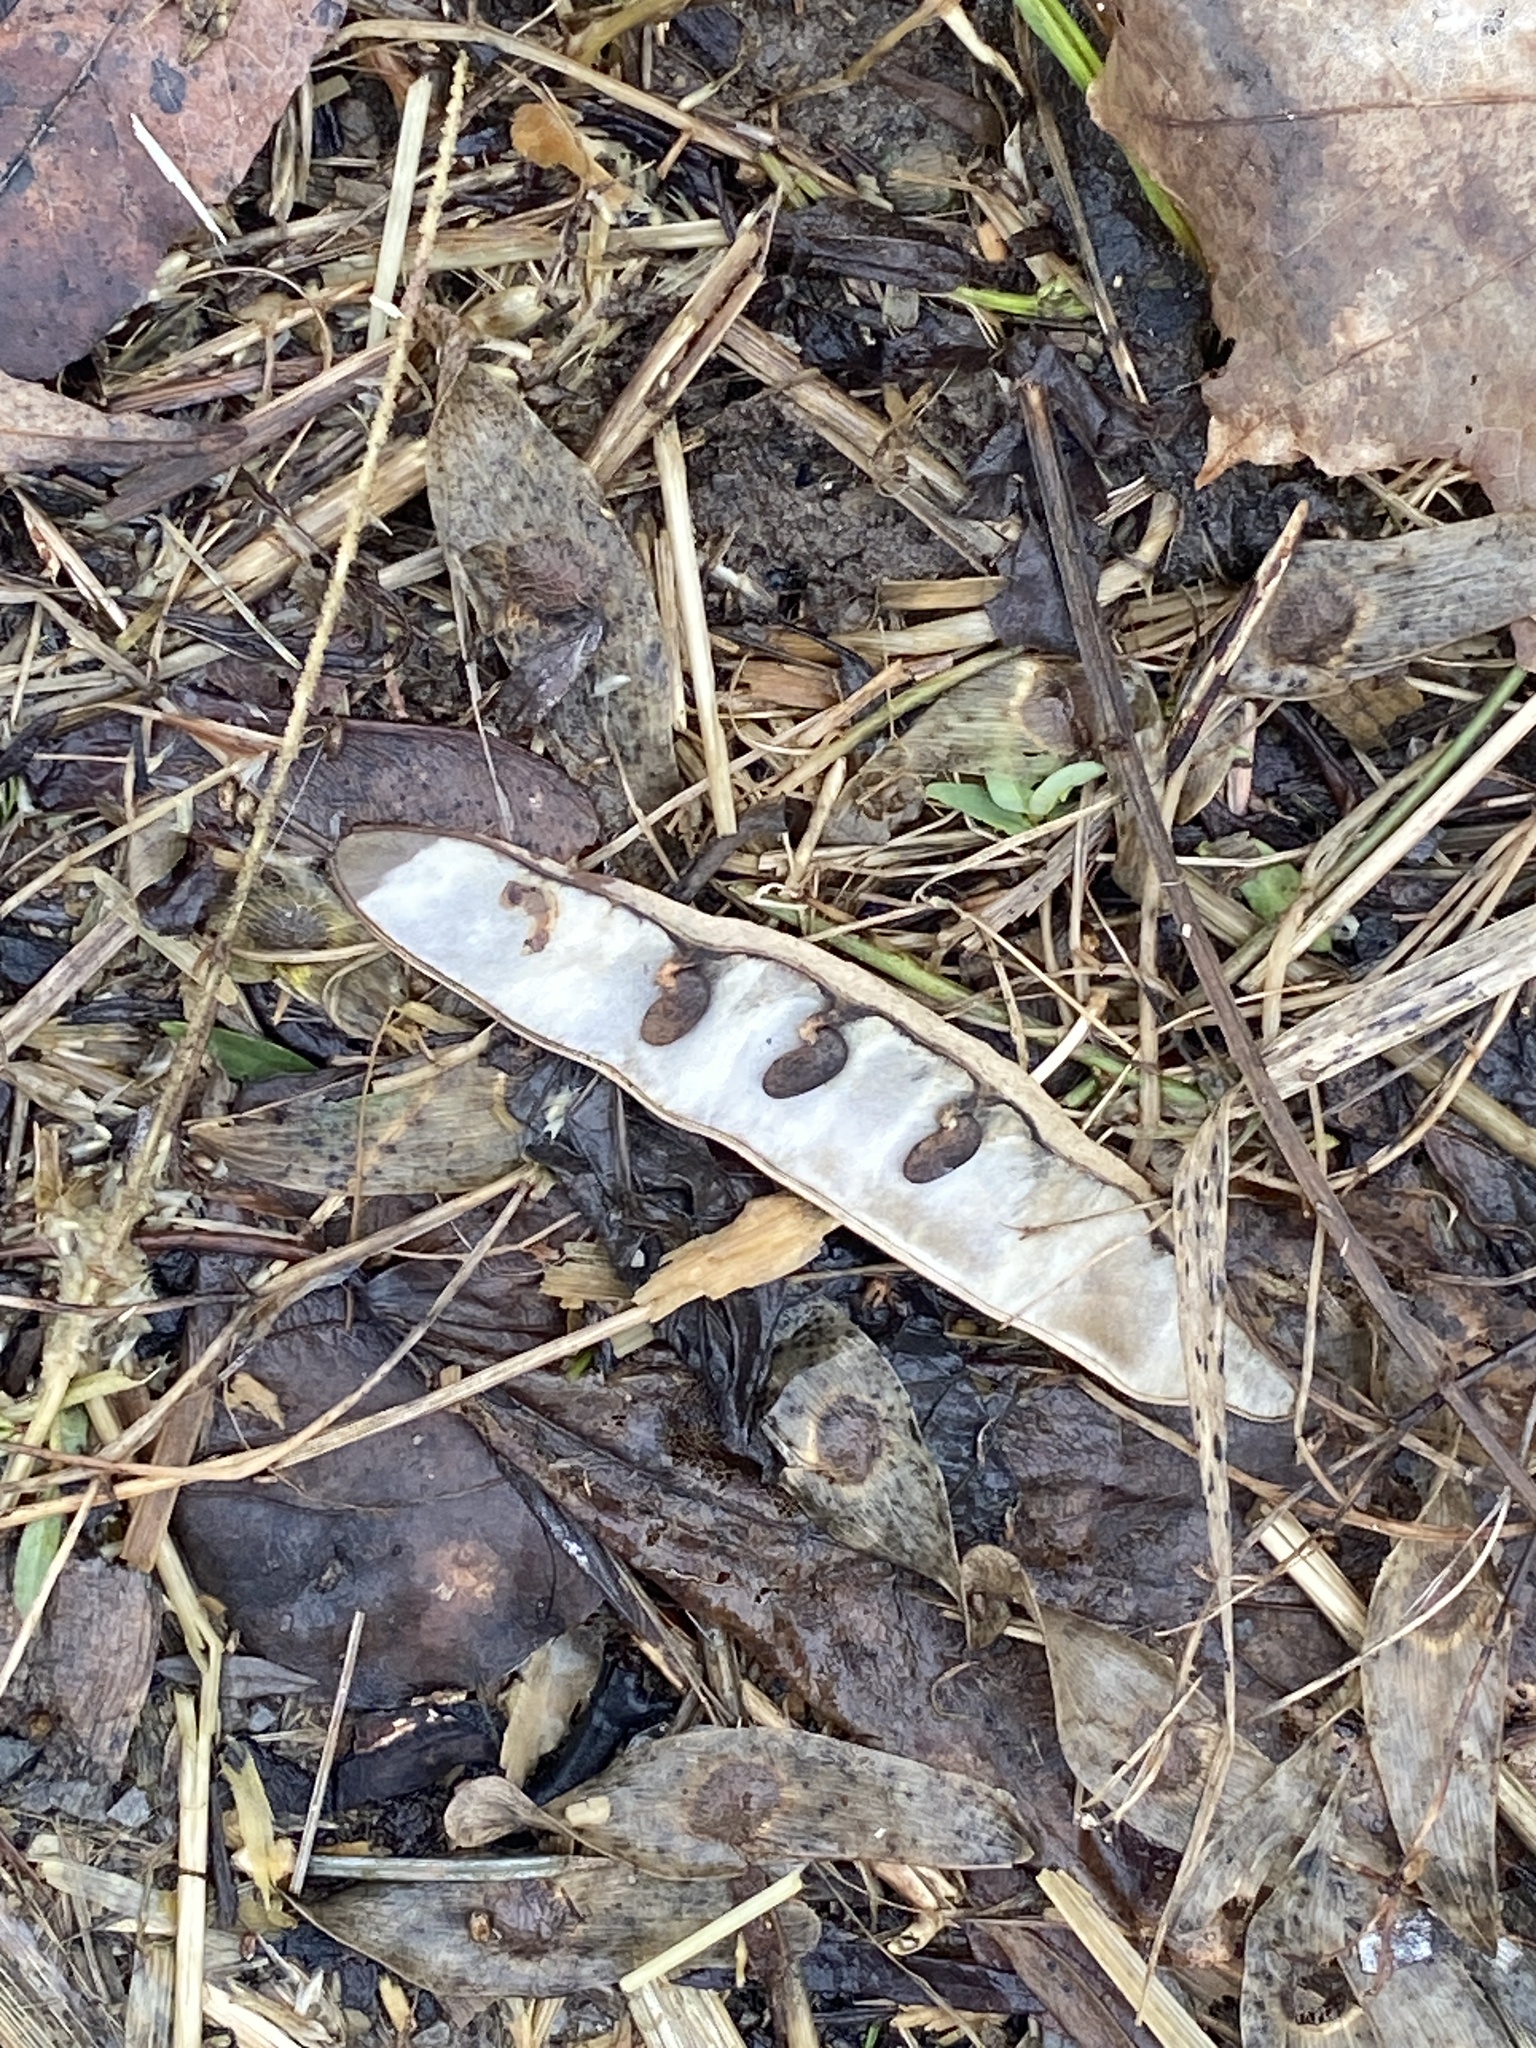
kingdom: Plantae
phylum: Tracheophyta
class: Magnoliopsida
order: Fabales
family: Fabaceae
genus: Robinia
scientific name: Robinia pseudoacacia
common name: Black locust
